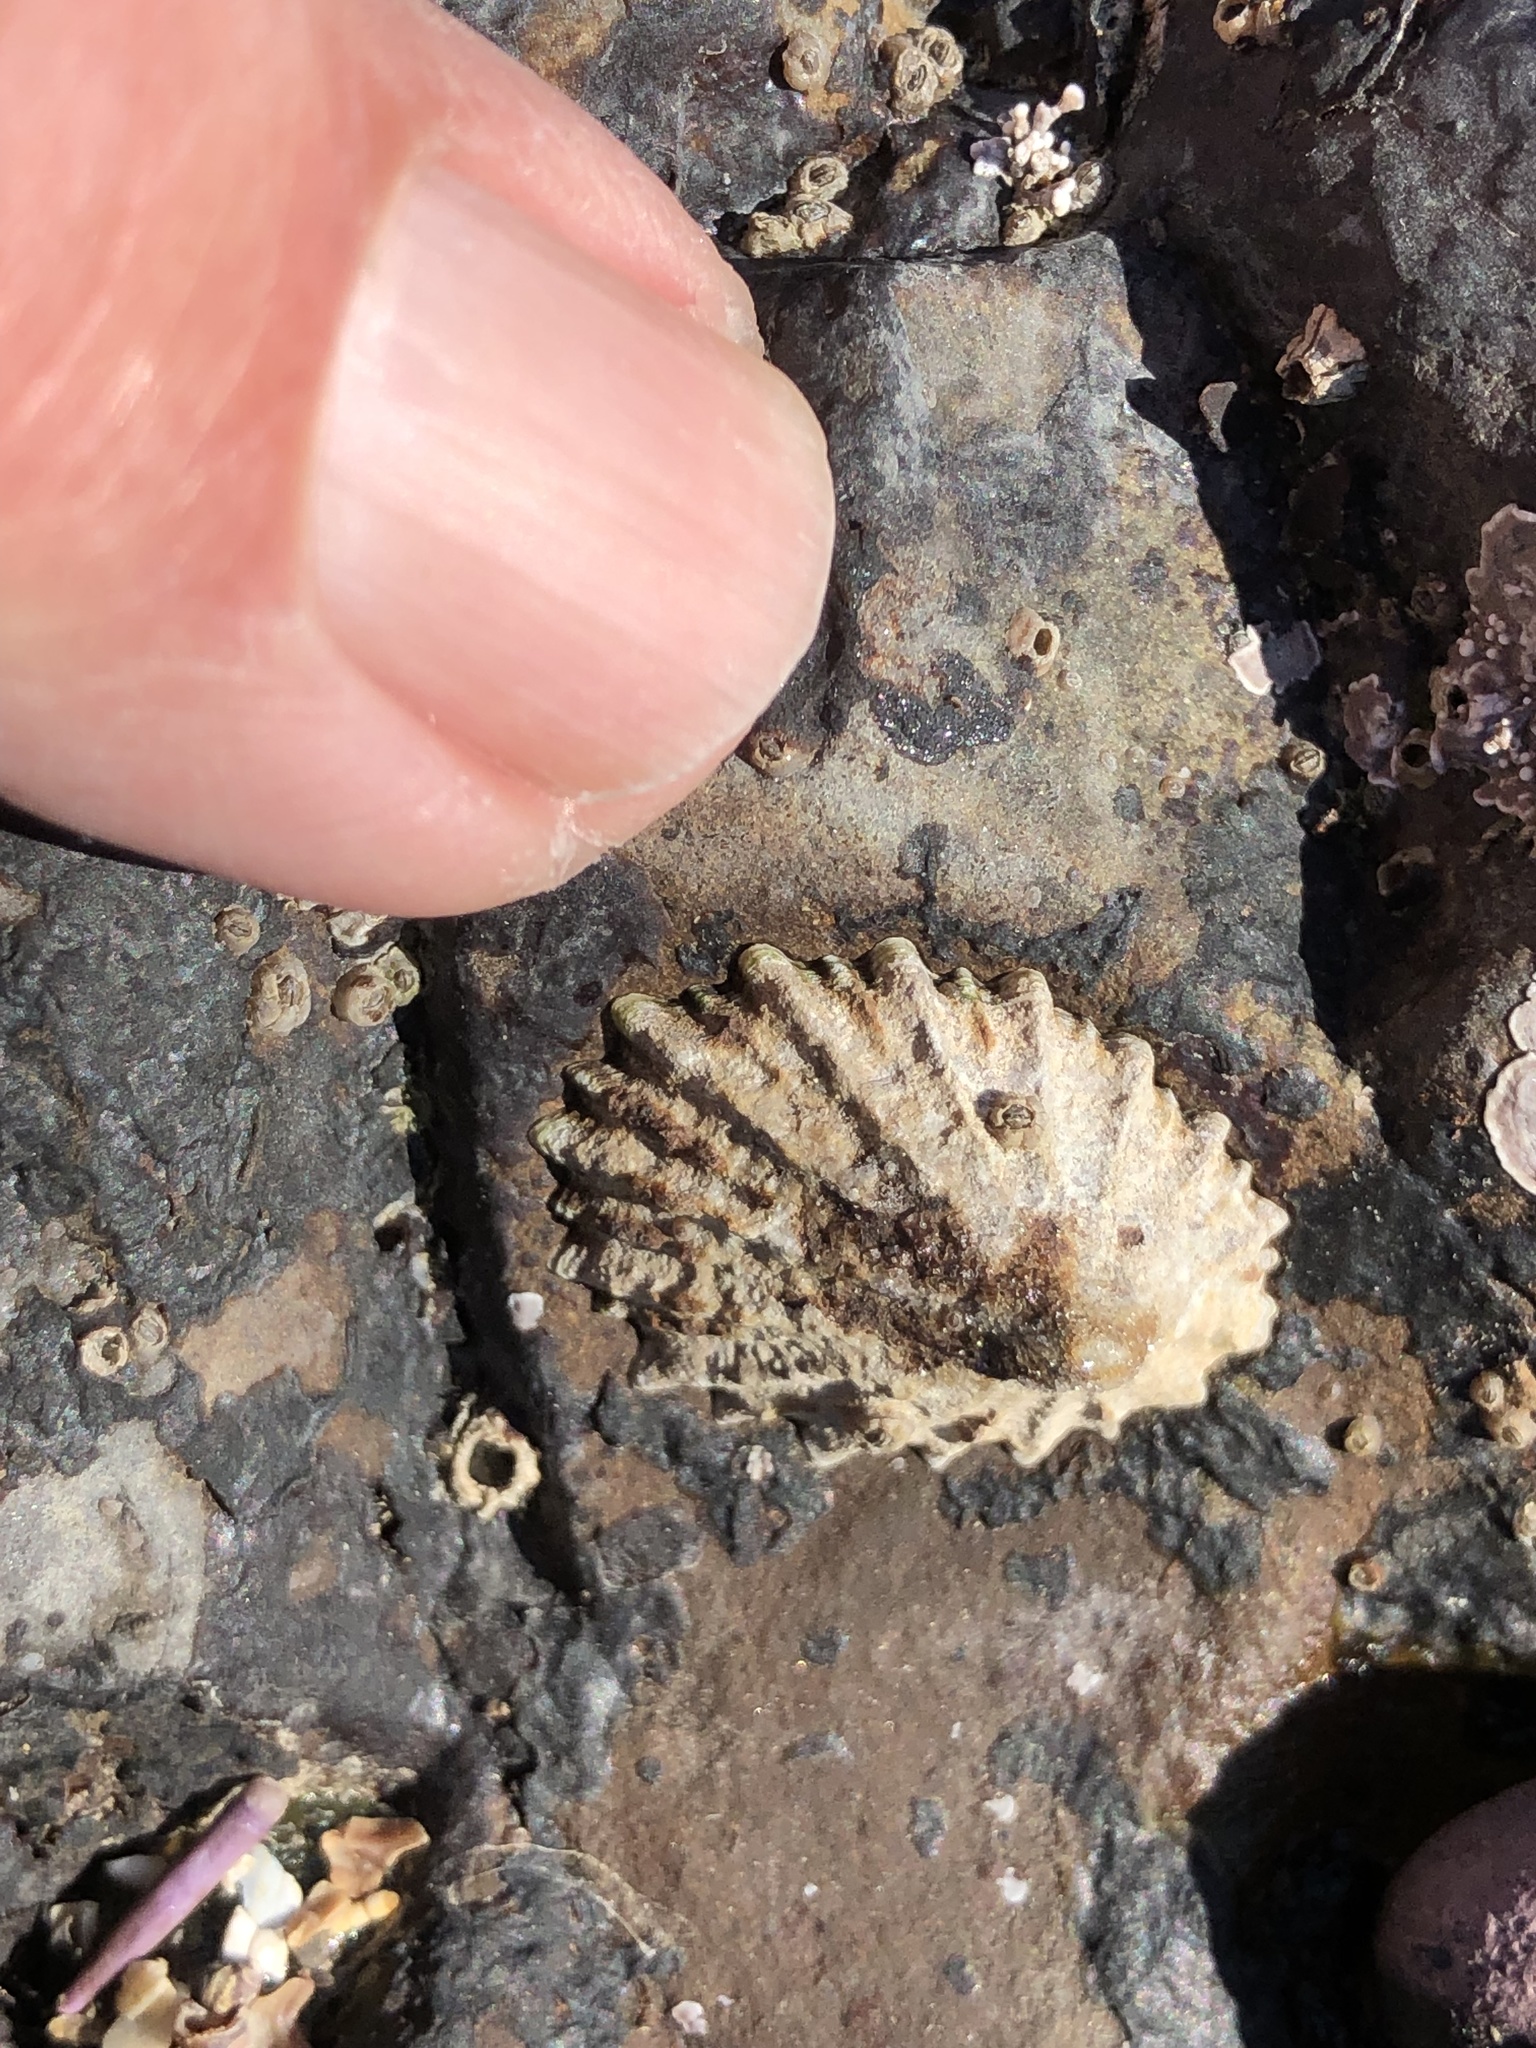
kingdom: Animalia
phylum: Mollusca
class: Gastropoda
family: Lottiidae
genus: Lottia
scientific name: Lottia scabra
